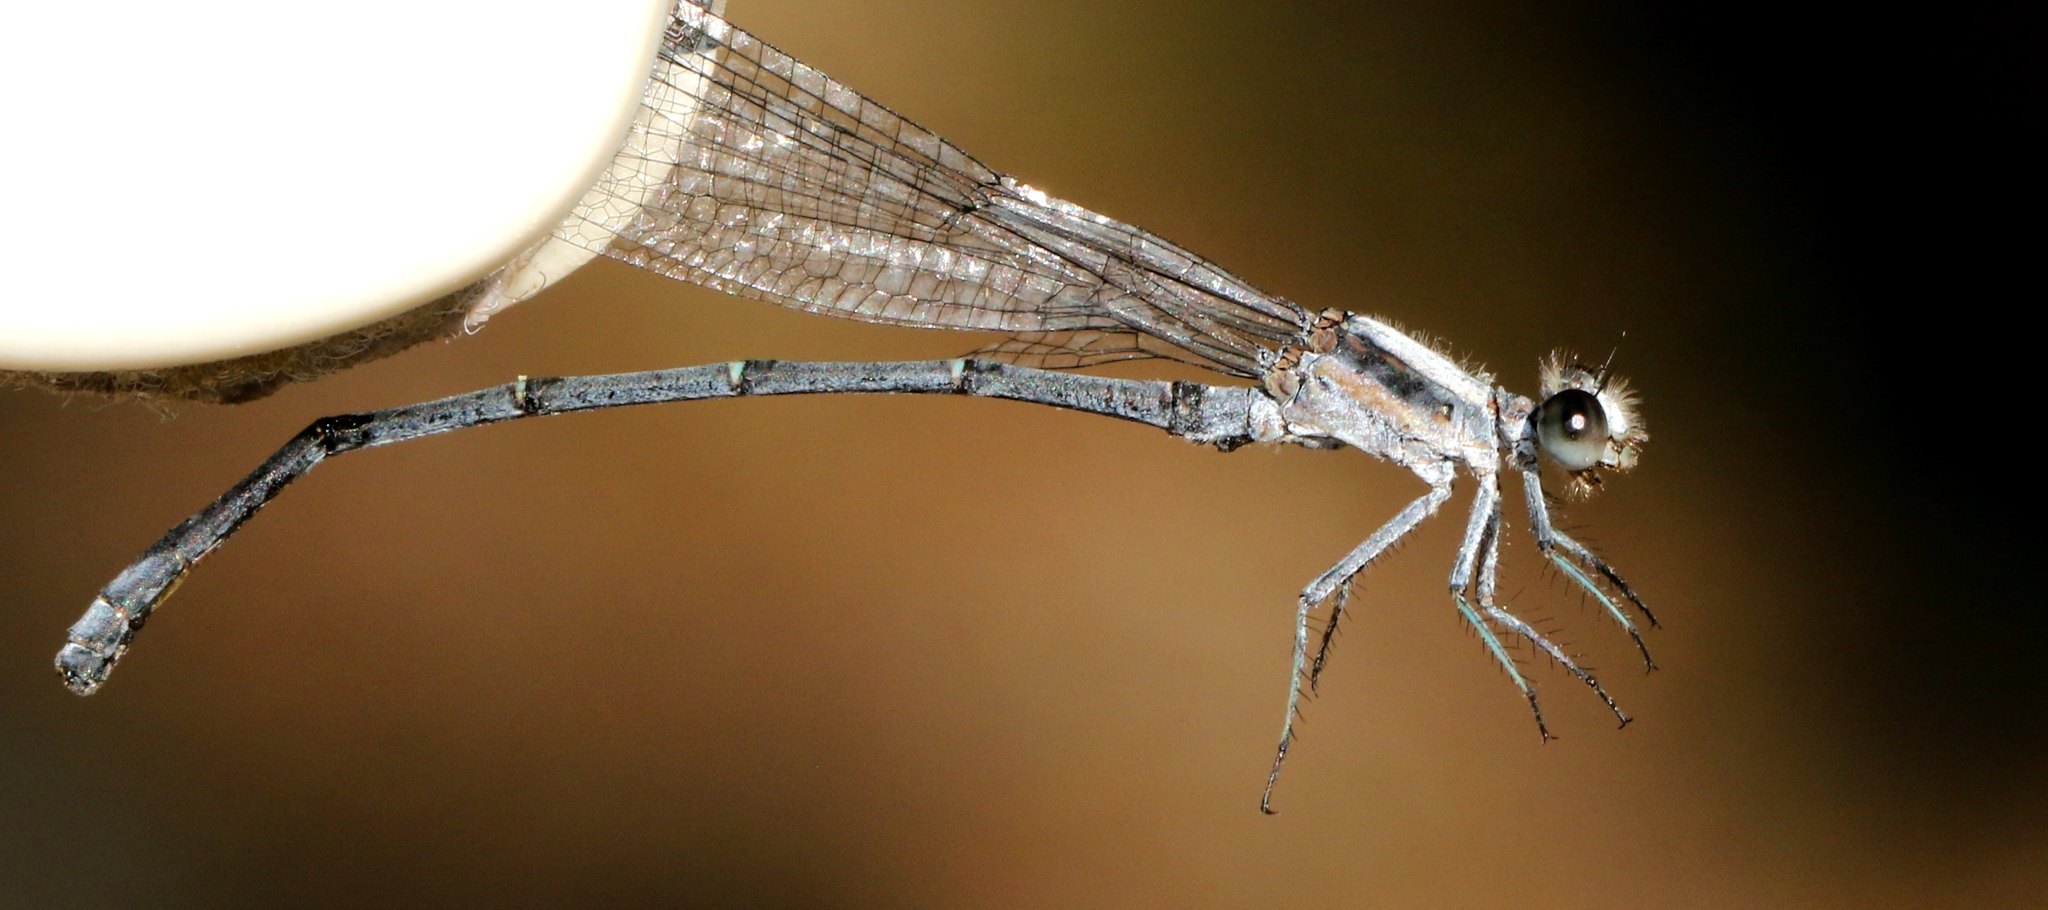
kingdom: Animalia
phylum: Arthropoda
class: Insecta
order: Odonata
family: Coenagrionidae
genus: Argia
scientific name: Argia moesta
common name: Powdered dancer
